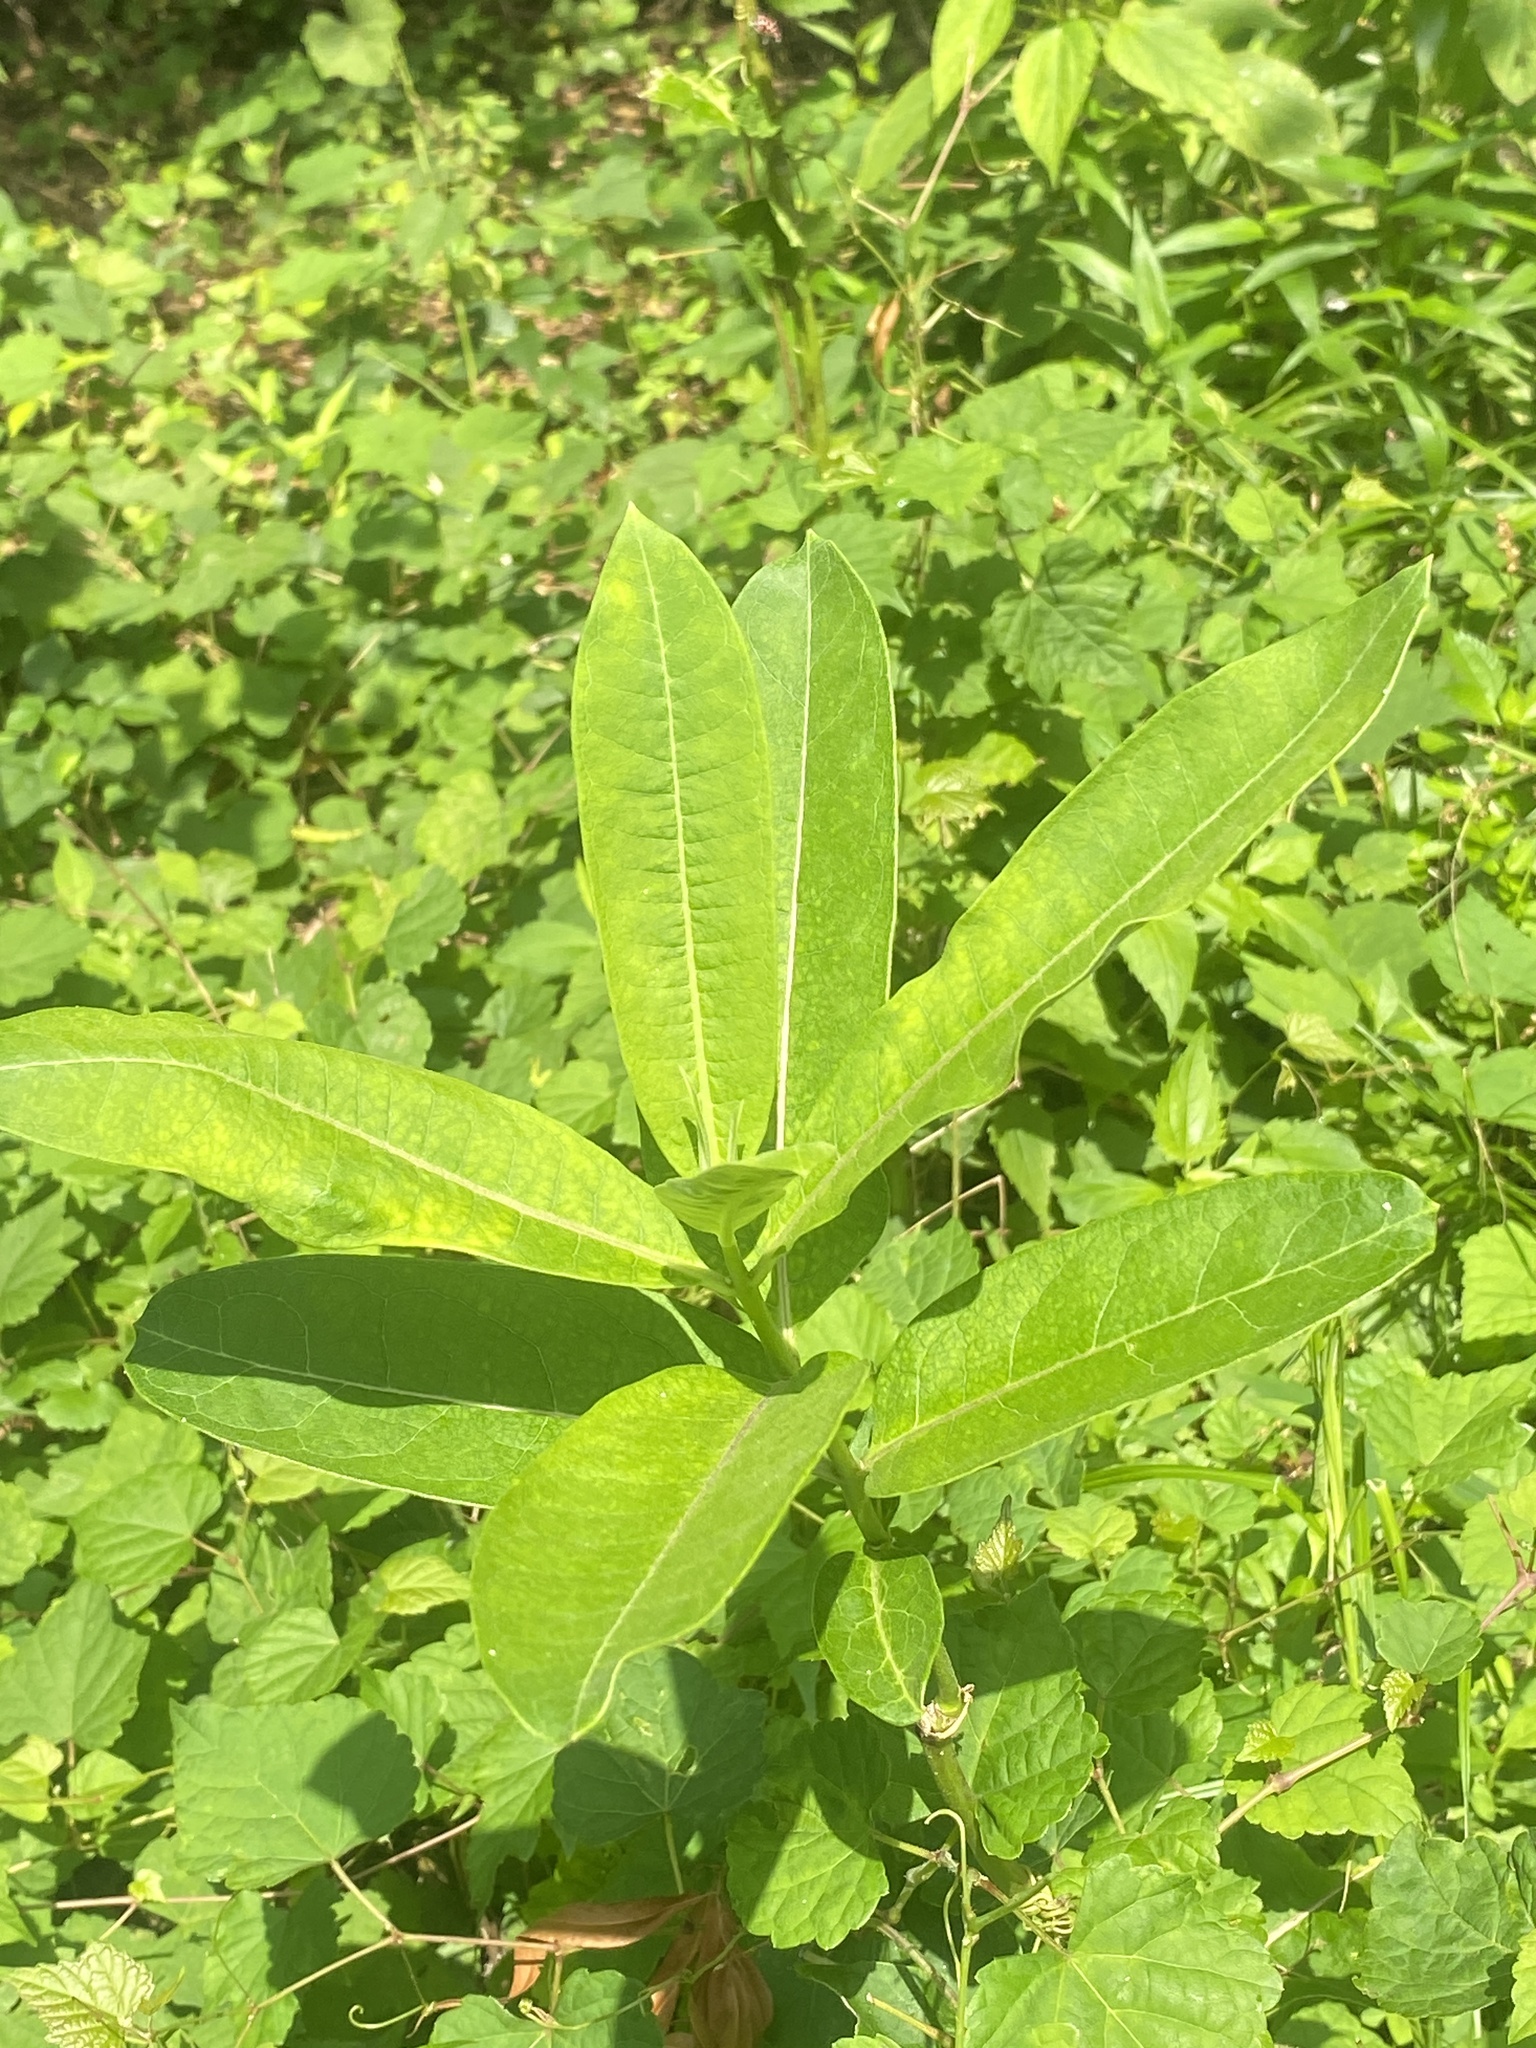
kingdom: Plantae
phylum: Tracheophyta
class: Magnoliopsida
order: Gentianales
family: Apocynaceae
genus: Asclepias
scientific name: Asclepias syriaca
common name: Common milkweed
